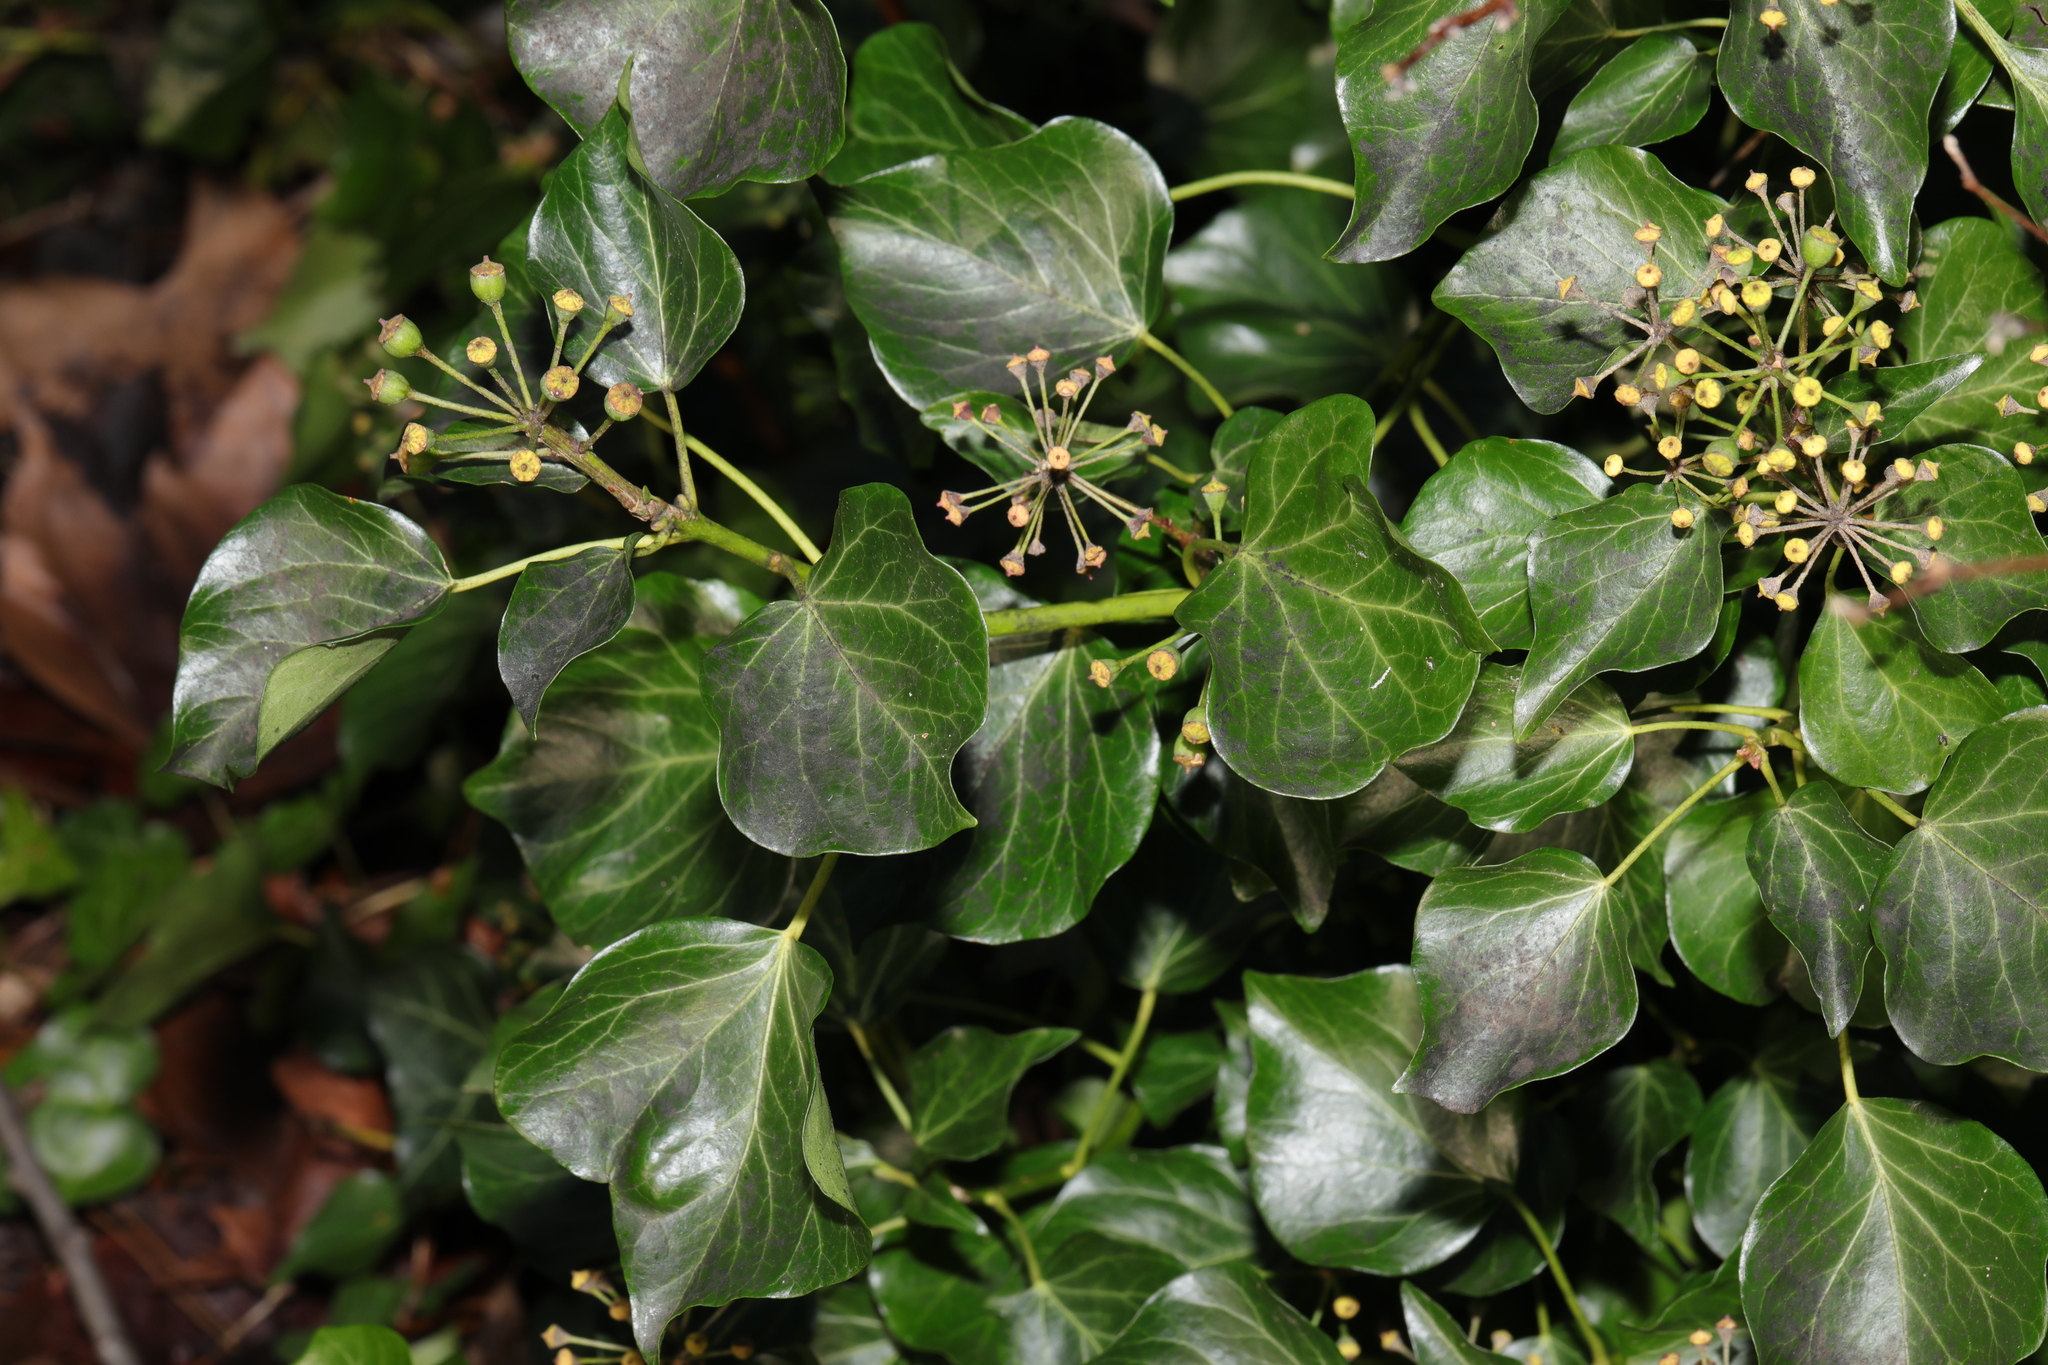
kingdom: Plantae
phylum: Tracheophyta
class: Magnoliopsida
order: Apiales
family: Araliaceae
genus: Hedera
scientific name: Hedera helix
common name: Ivy
